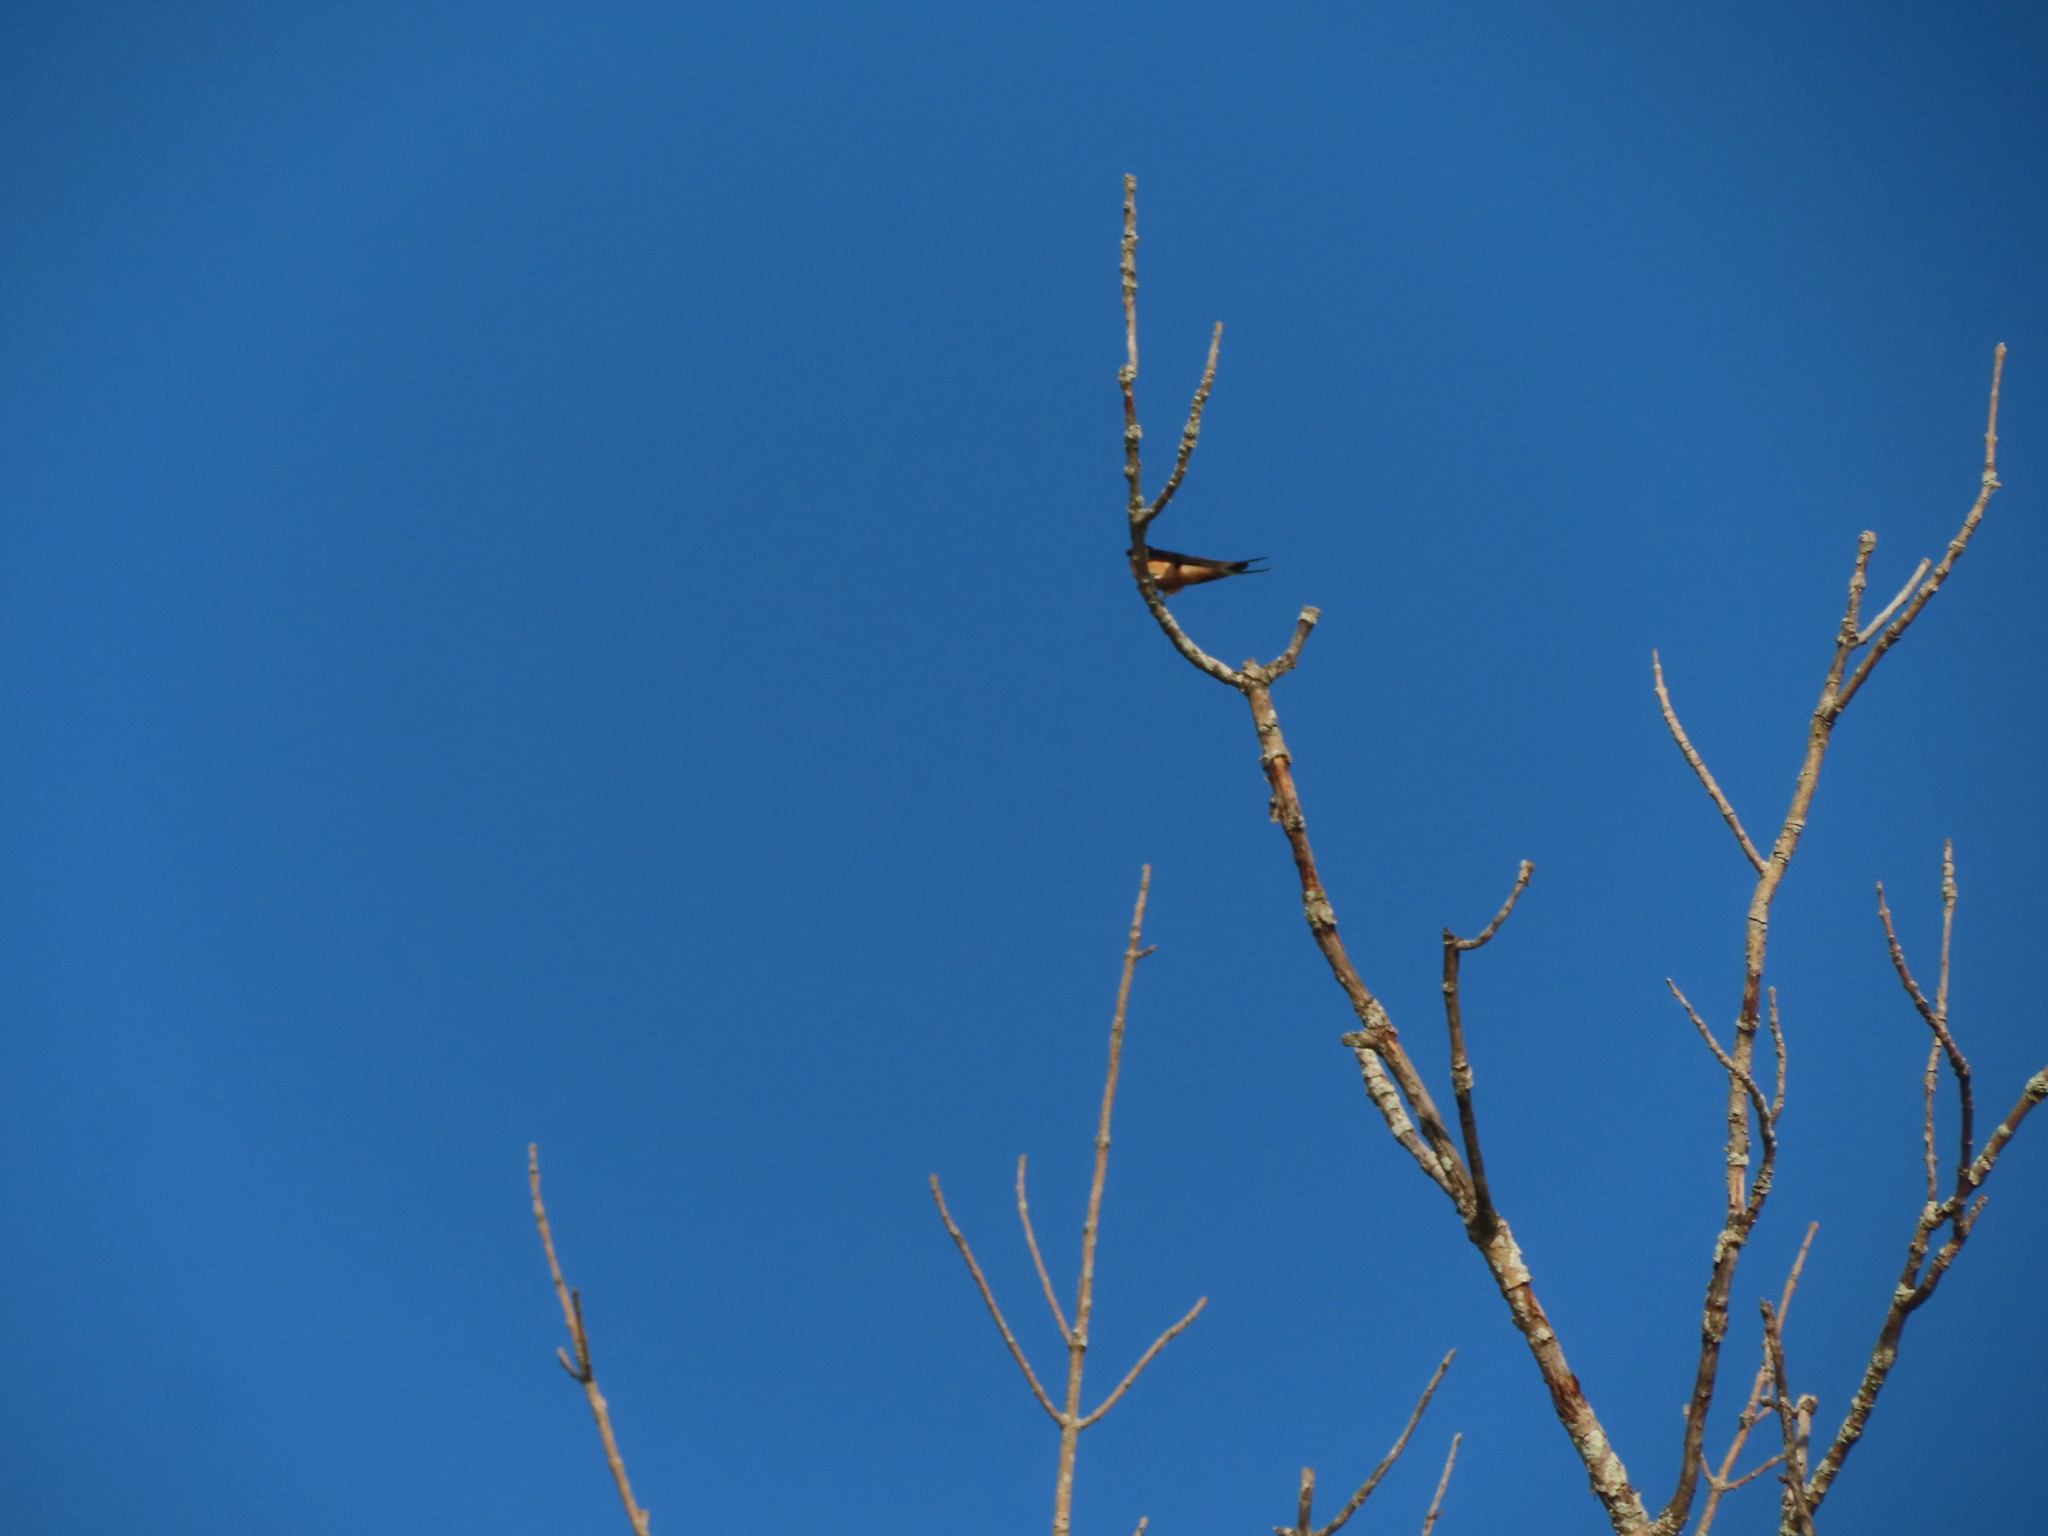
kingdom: Animalia
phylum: Chordata
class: Aves
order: Passeriformes
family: Hirundinidae
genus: Hirundo
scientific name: Hirundo rustica
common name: Barn swallow
